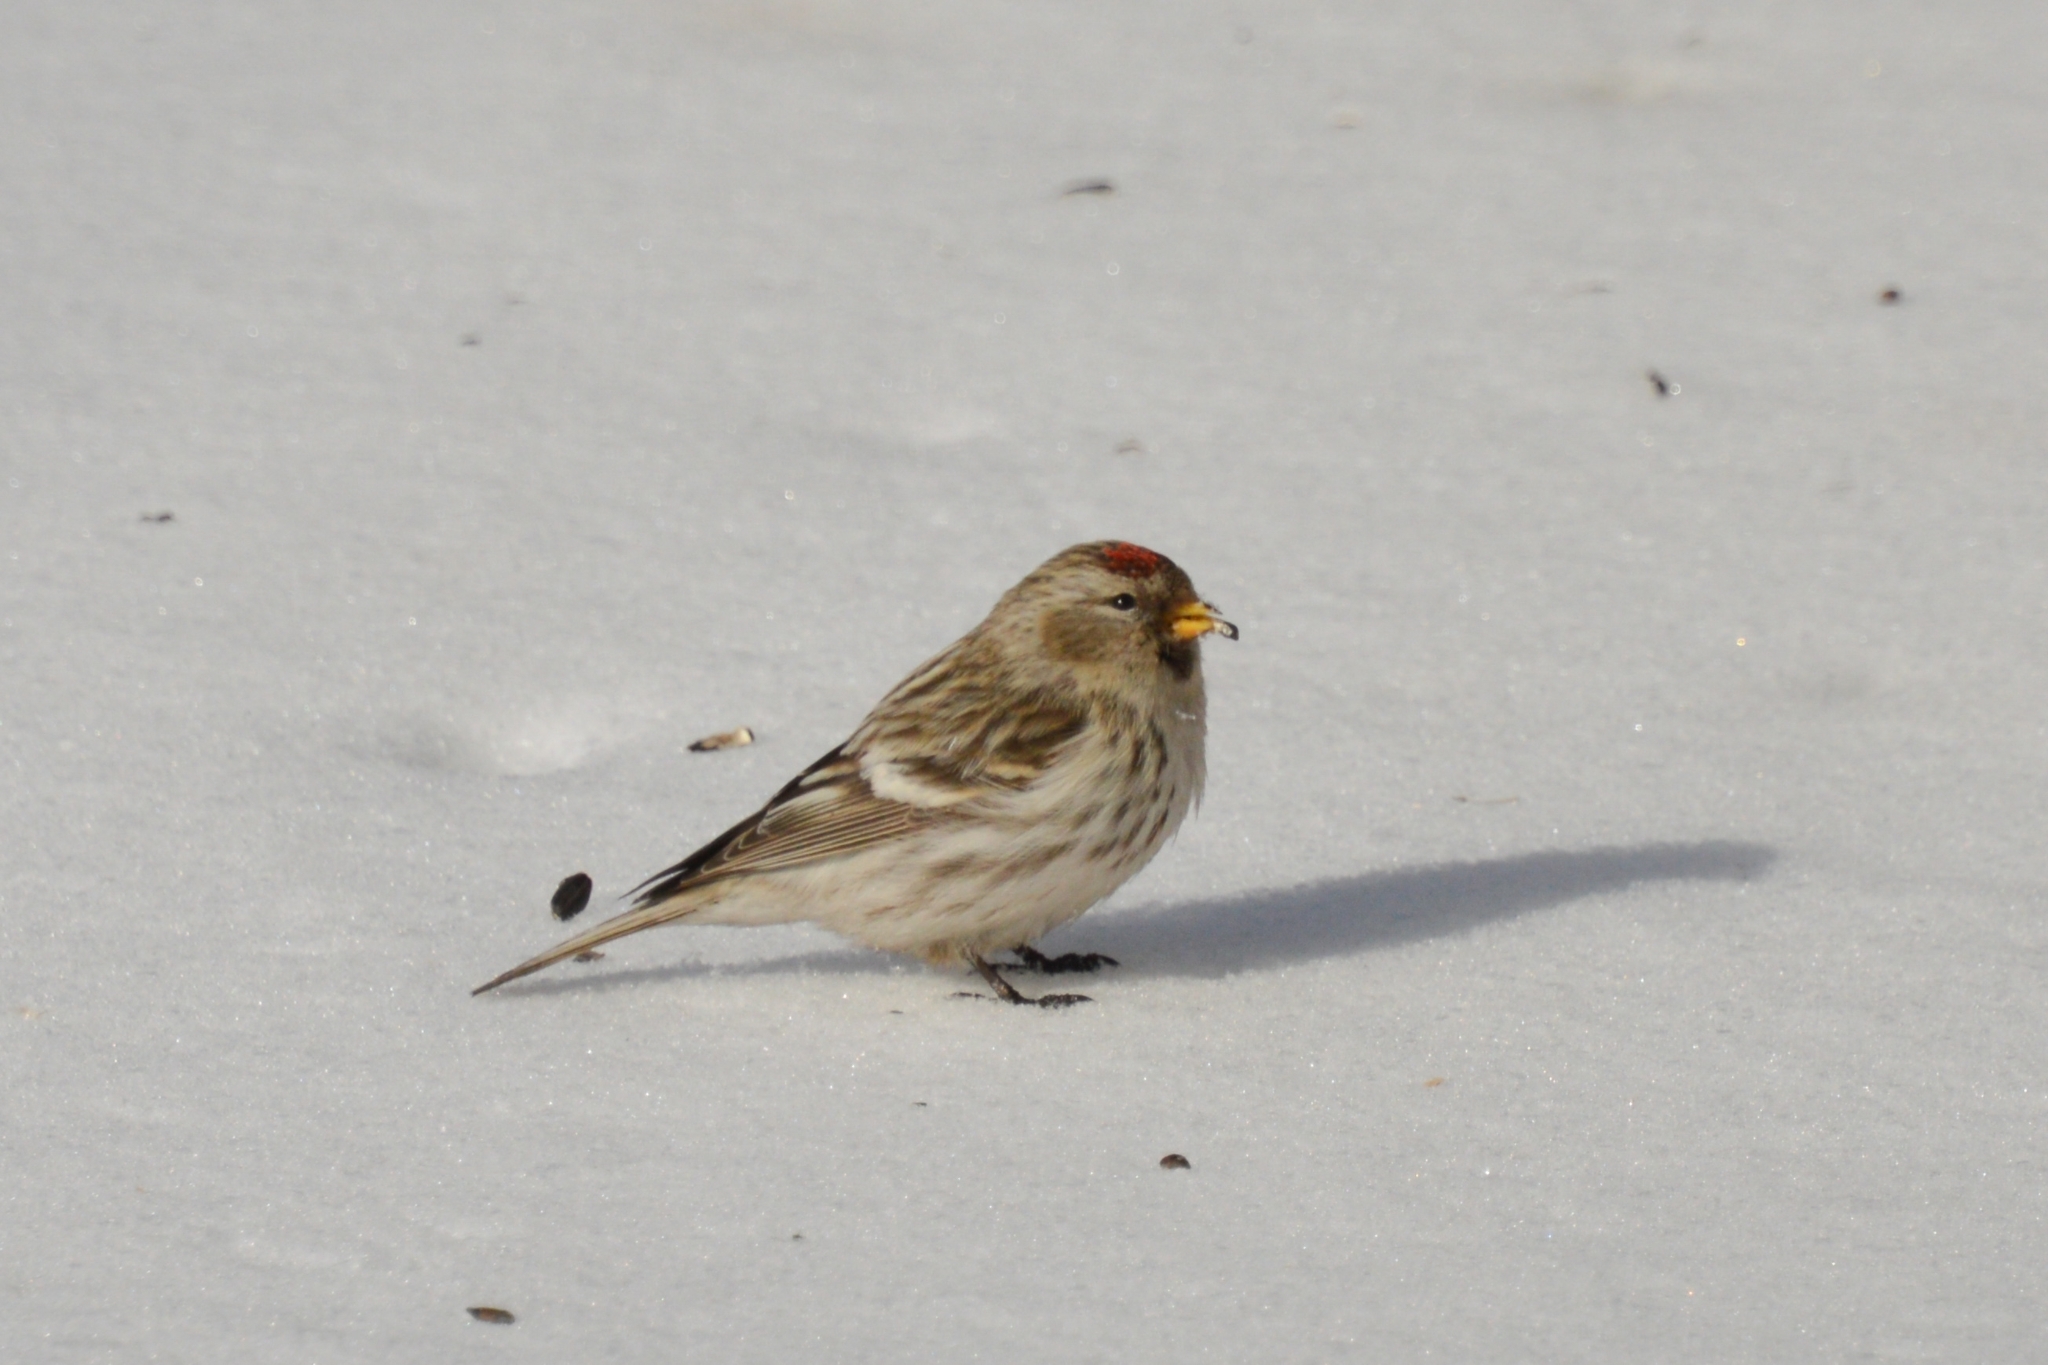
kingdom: Animalia
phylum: Chordata
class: Aves
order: Passeriformes
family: Fringillidae
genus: Acanthis
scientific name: Acanthis flammea
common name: Common redpoll
